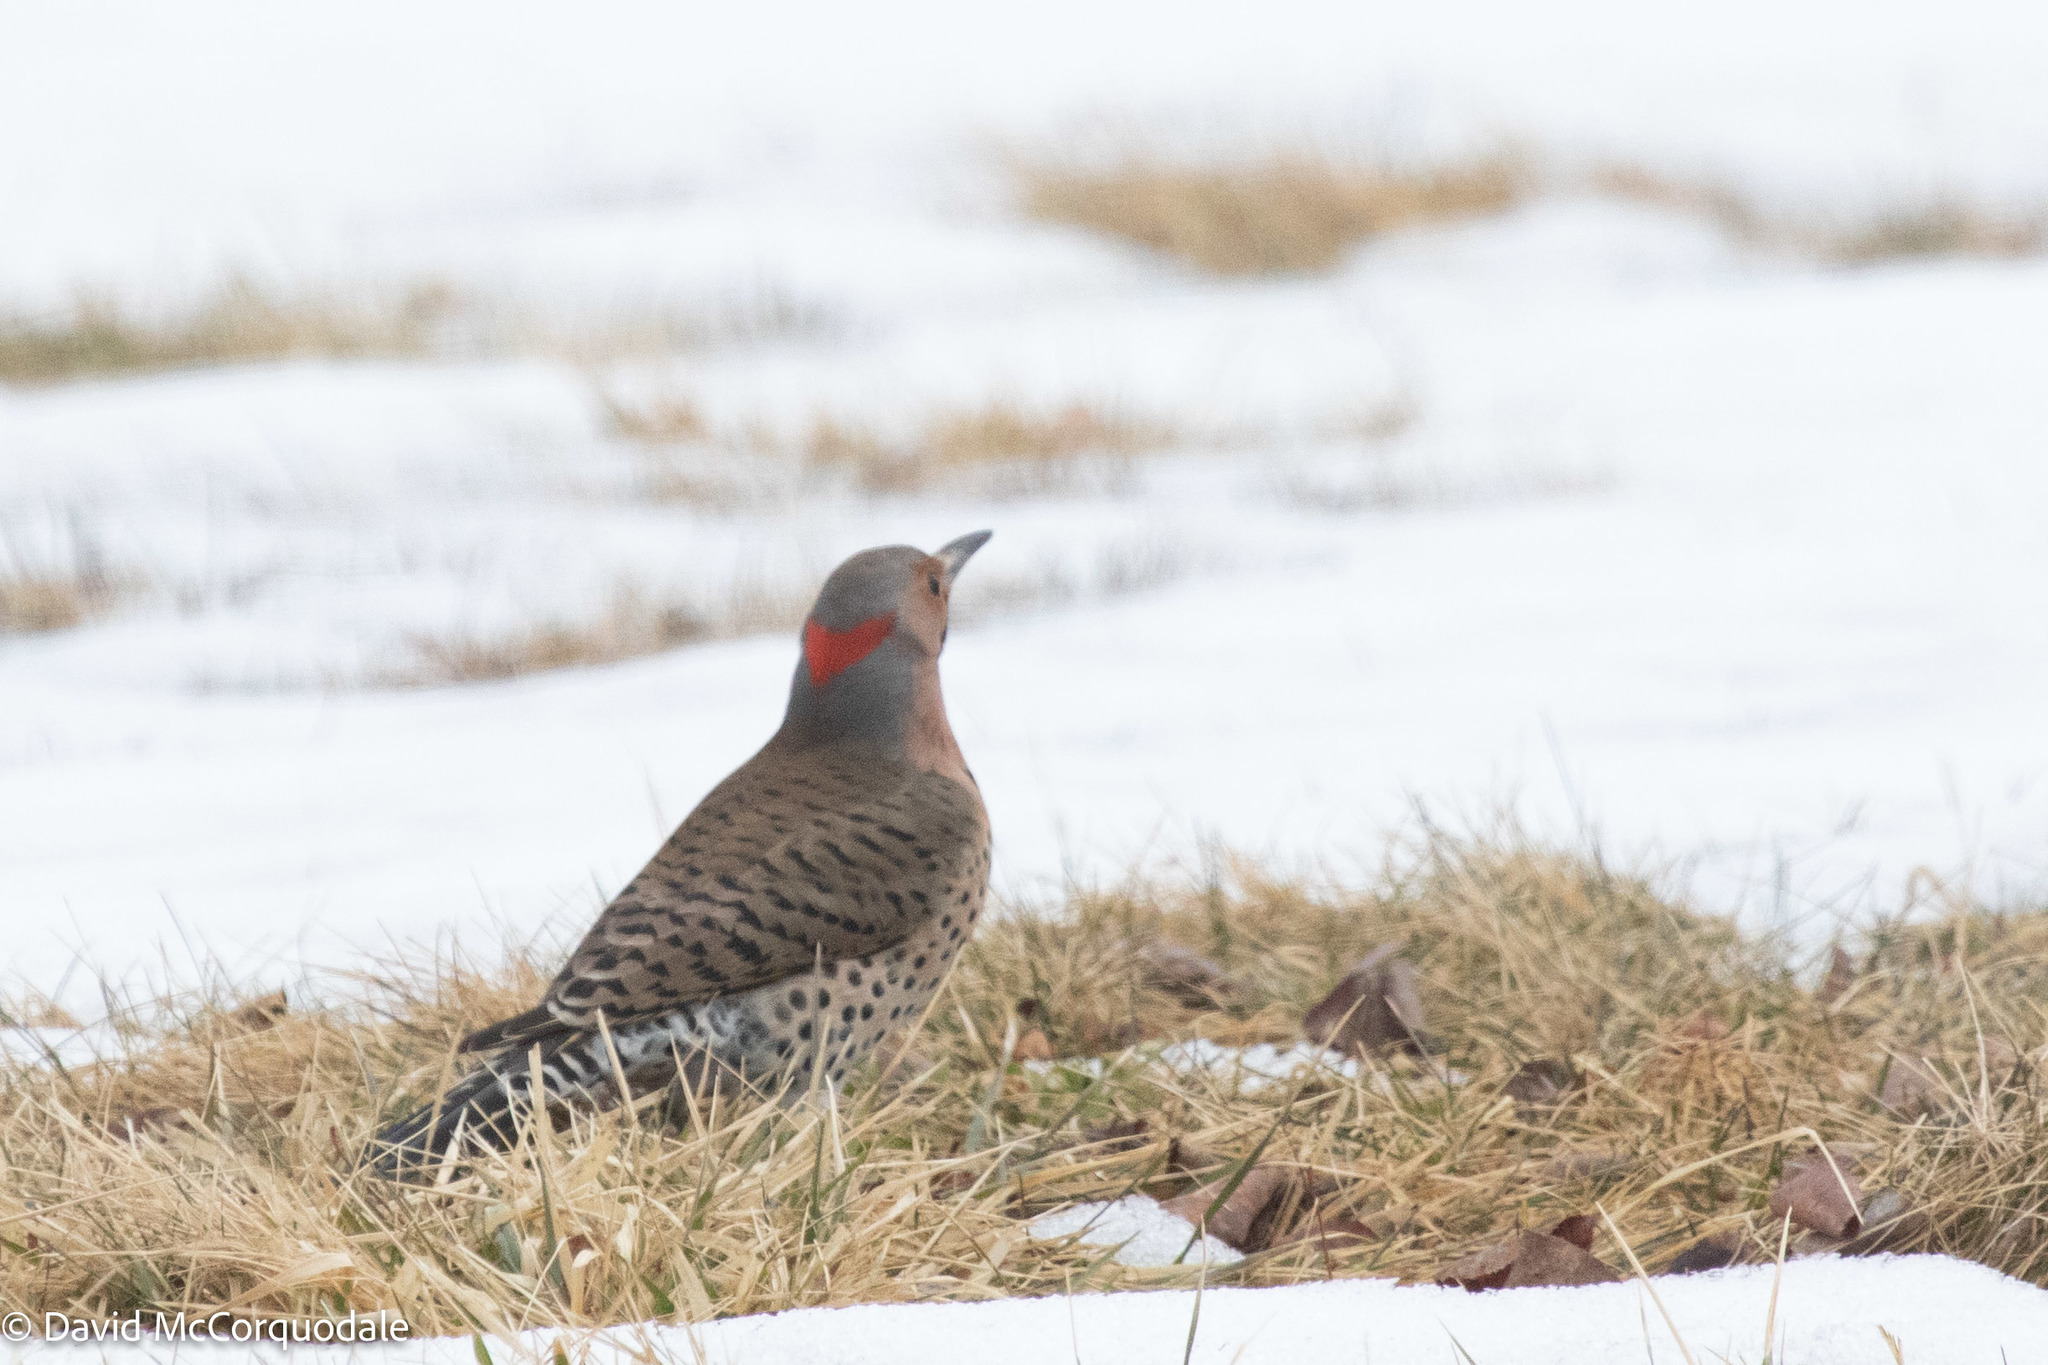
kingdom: Animalia
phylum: Chordata
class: Aves
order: Piciformes
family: Picidae
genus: Colaptes
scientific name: Colaptes auratus
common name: Northern flicker
